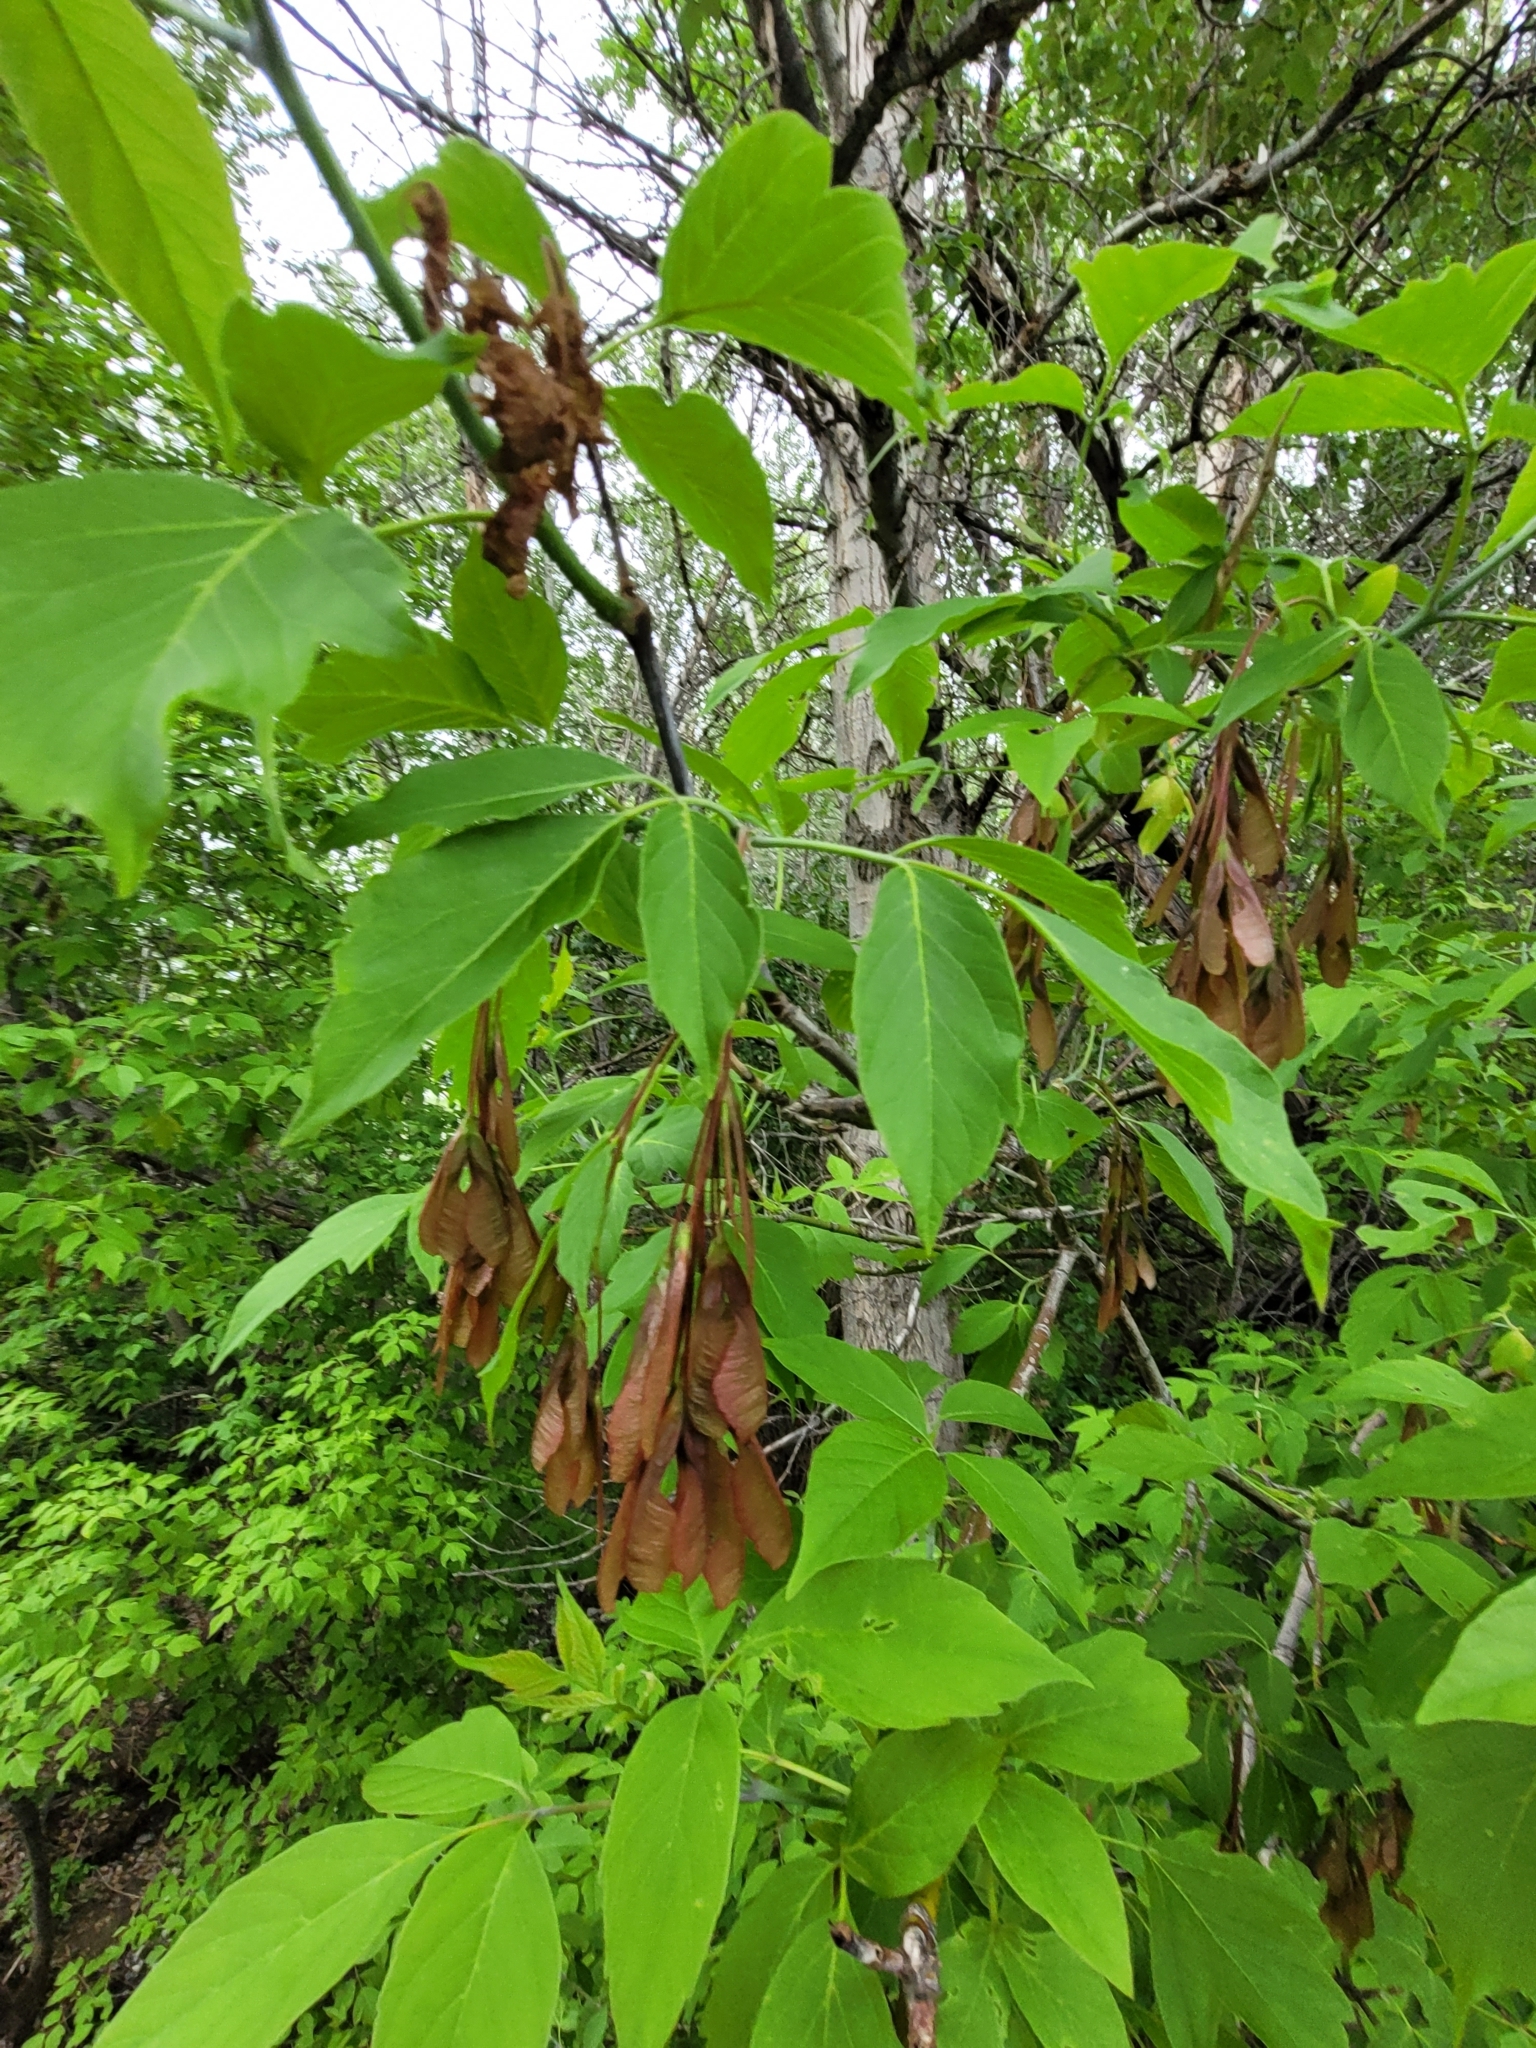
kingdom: Plantae
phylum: Tracheophyta
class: Magnoliopsida
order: Sapindales
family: Sapindaceae
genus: Acer
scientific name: Acer negundo
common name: Ashleaf maple
